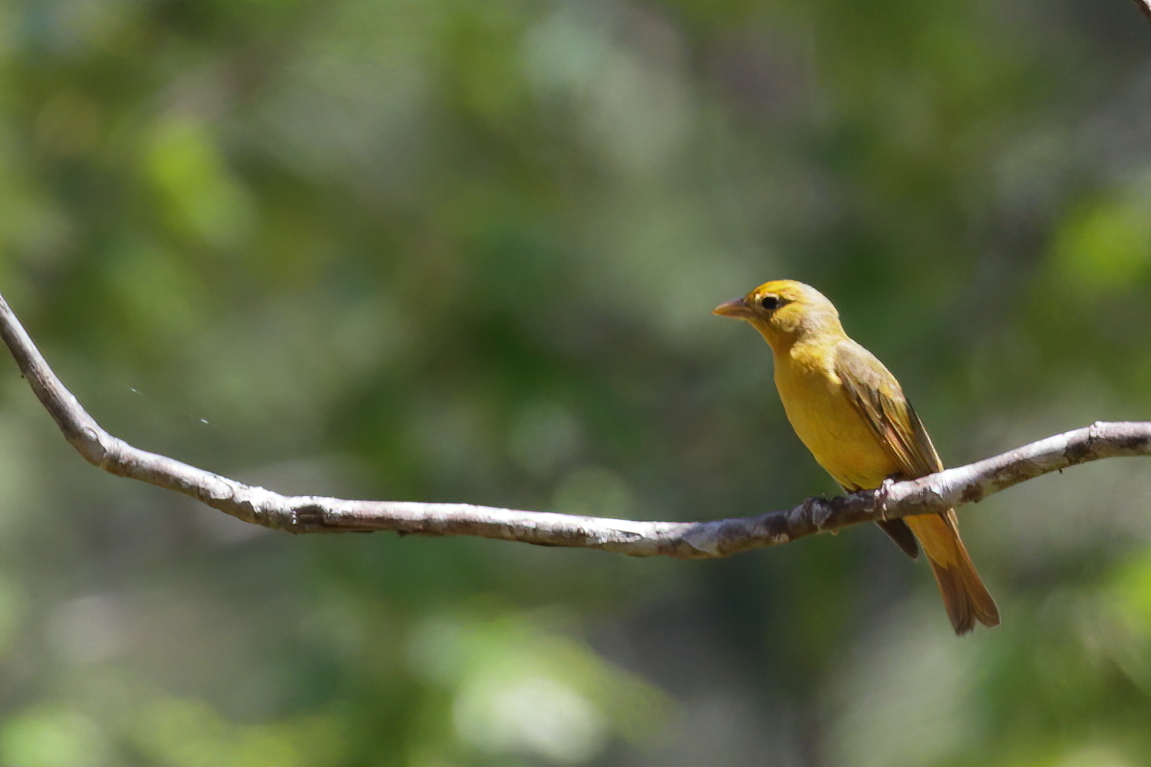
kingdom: Animalia
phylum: Chordata
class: Aves
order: Passeriformes
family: Cardinalidae
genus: Piranga
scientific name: Piranga rubra
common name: Summer tanager
